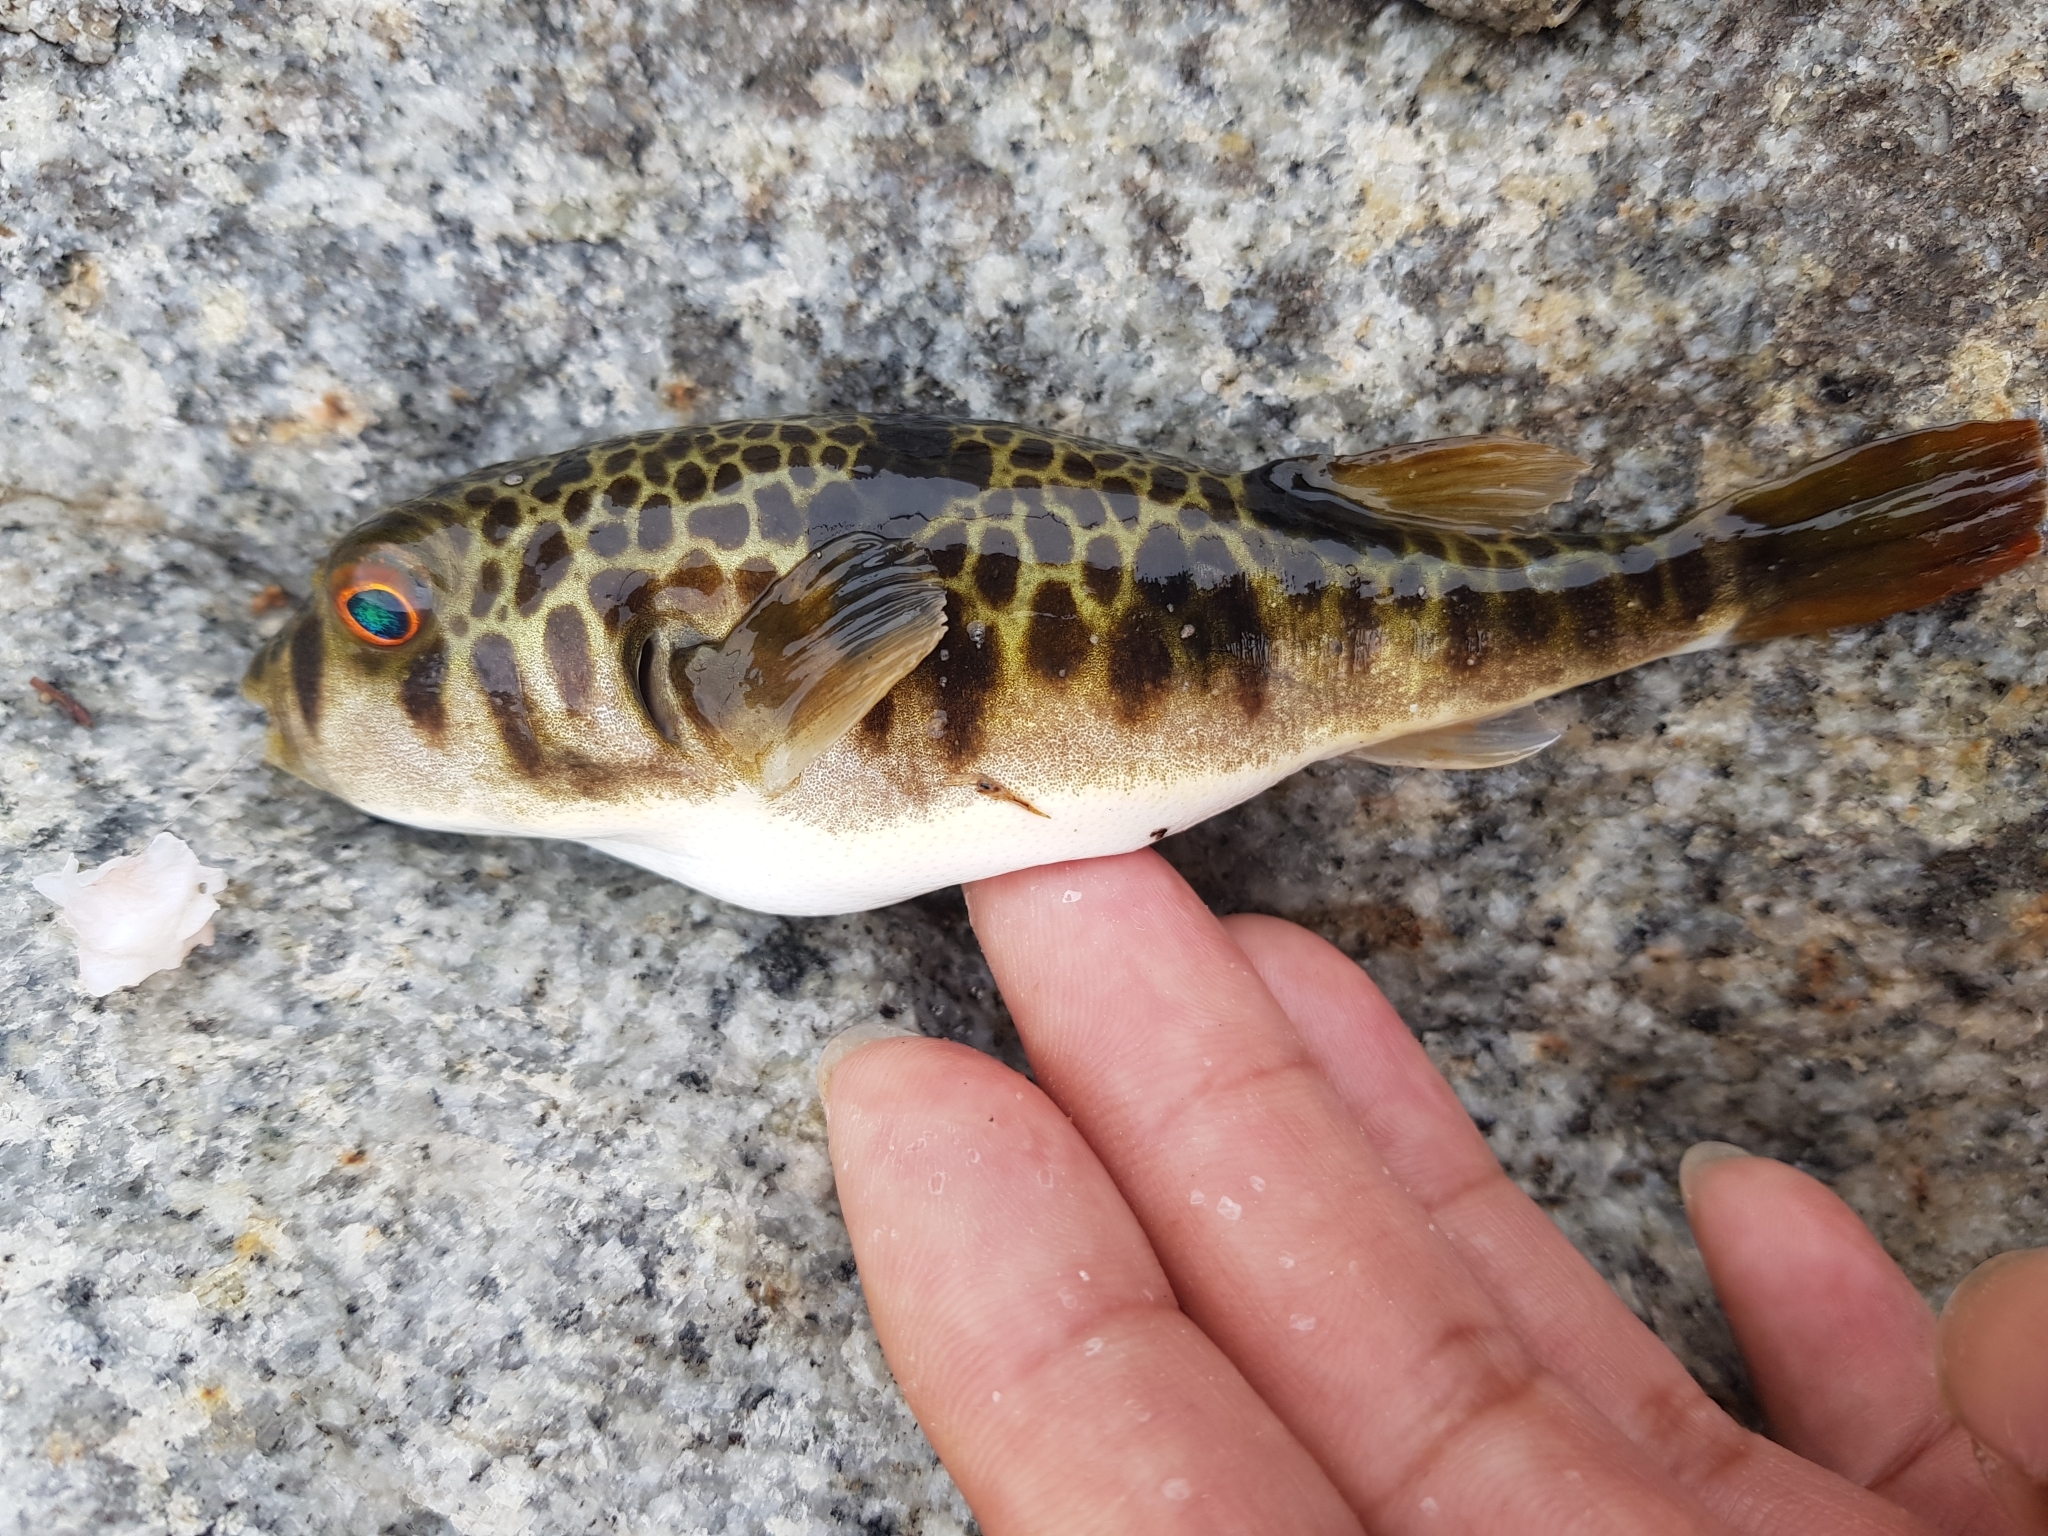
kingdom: Animalia
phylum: Chordata
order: Tetraodontiformes
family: Tetraodontidae
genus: Tetractenos
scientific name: Tetractenos glaber
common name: Smooth toadfish
